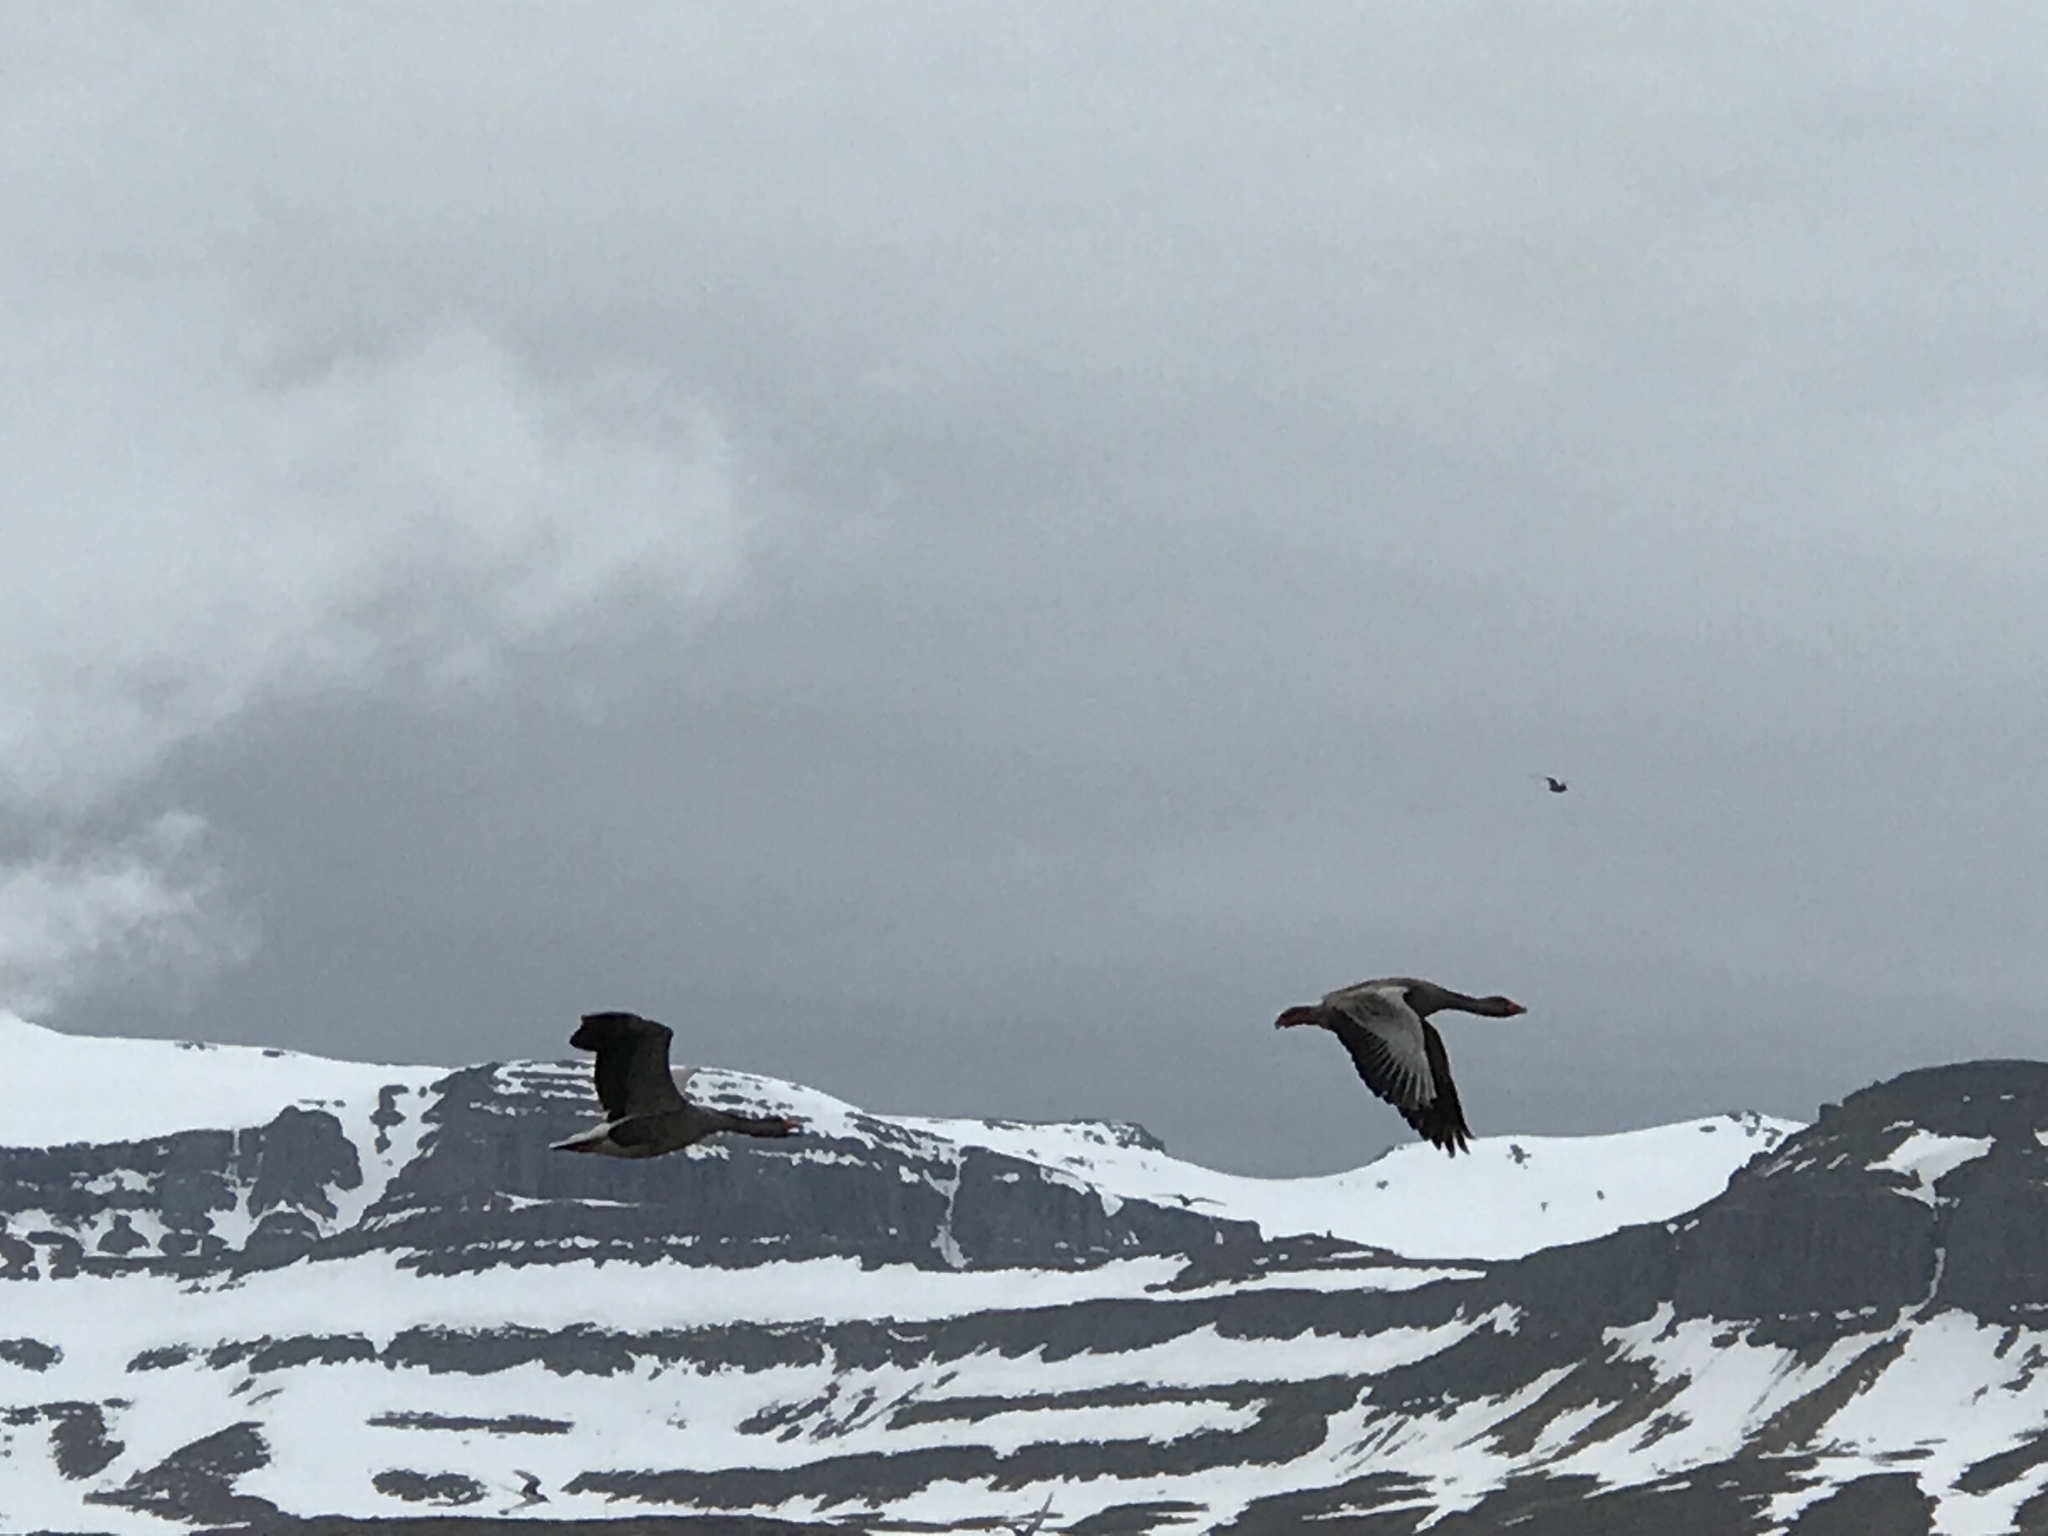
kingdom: Animalia
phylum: Chordata
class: Aves
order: Anseriformes
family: Anatidae
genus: Anser
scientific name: Anser anser
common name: Greylag goose
